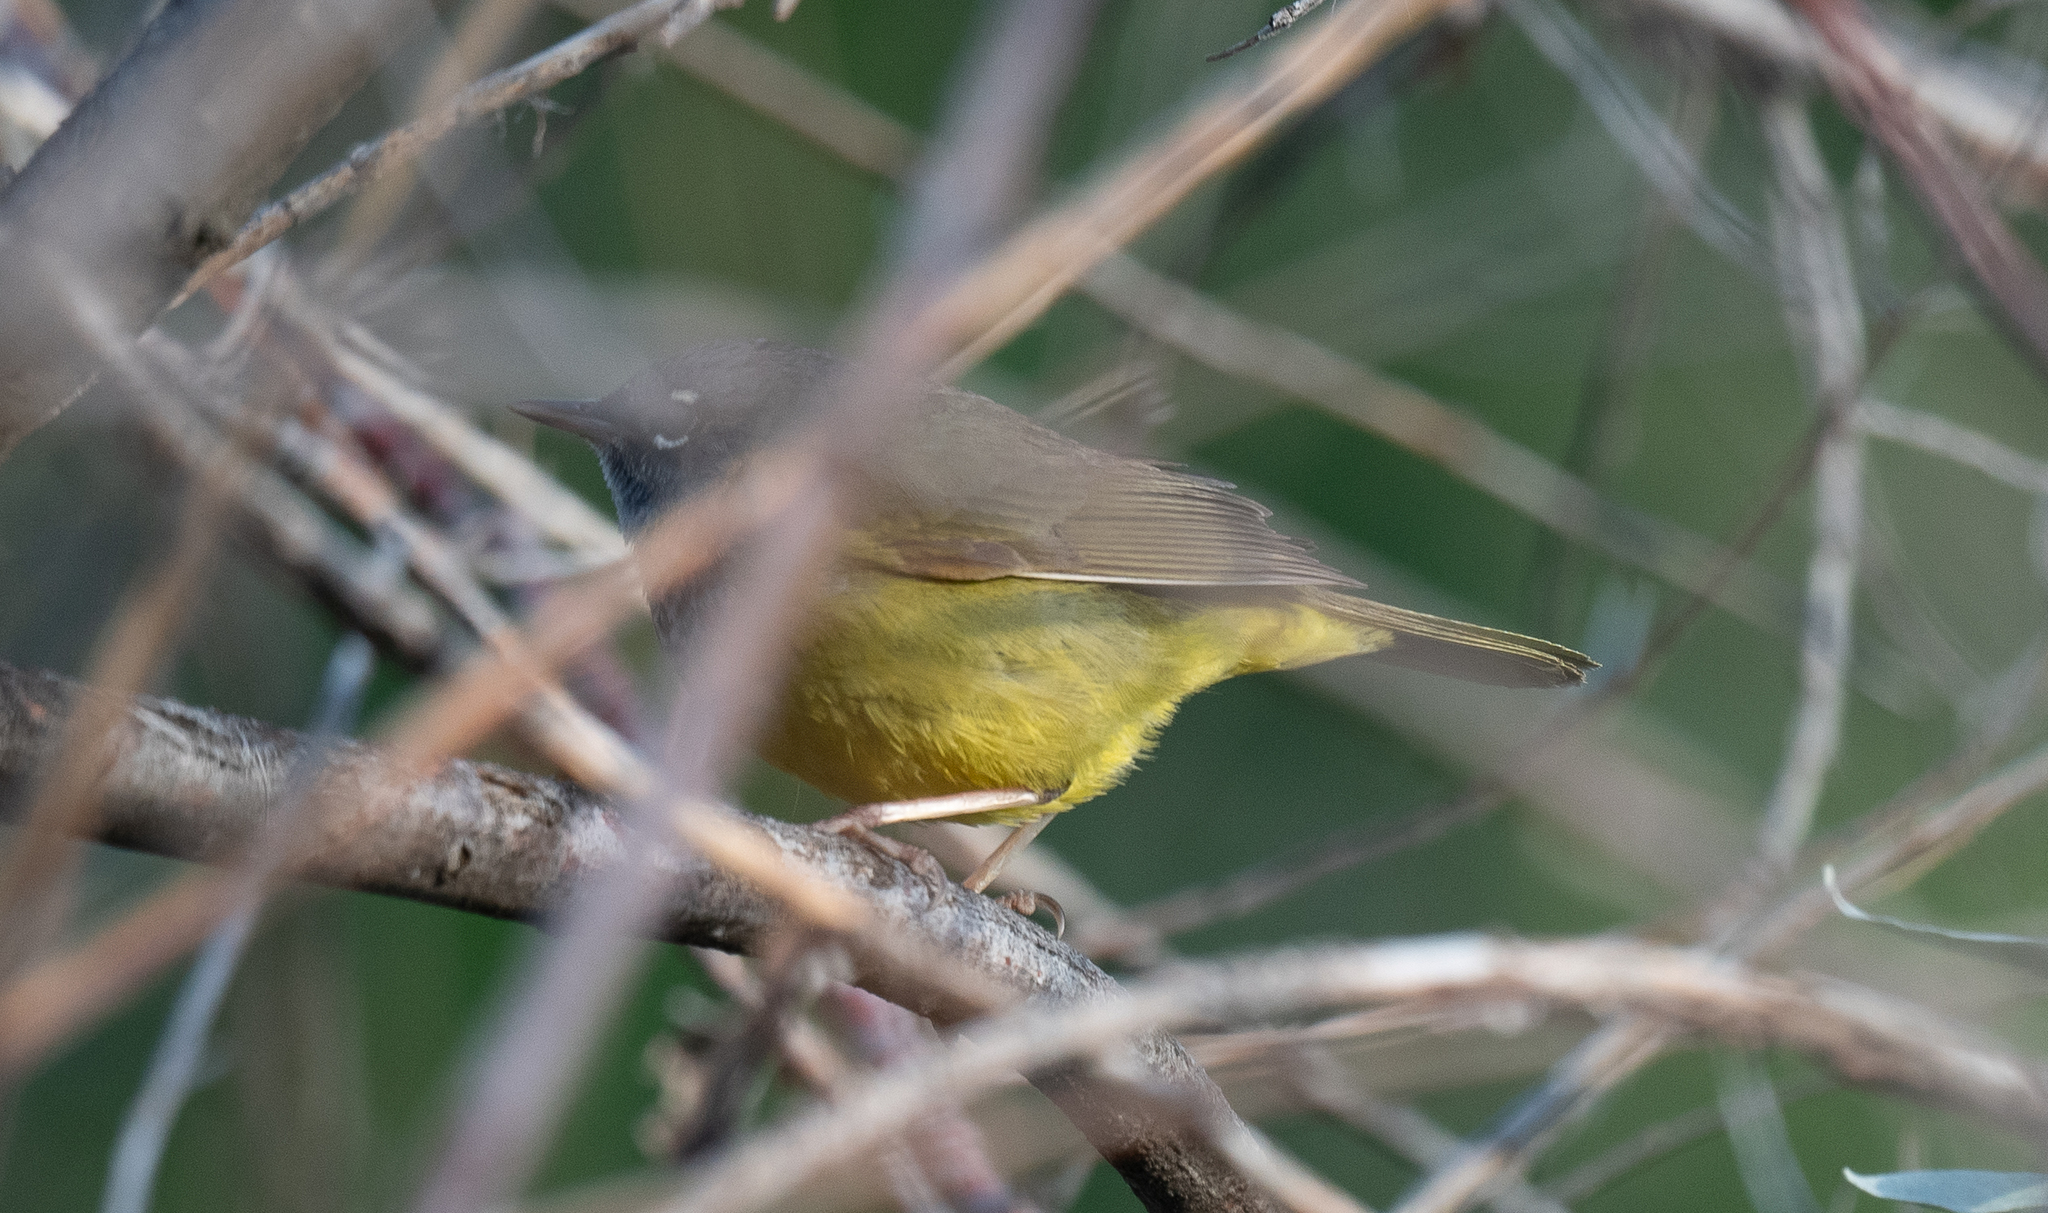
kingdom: Animalia
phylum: Chordata
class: Aves
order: Passeriformes
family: Parulidae
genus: Geothlypis
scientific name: Geothlypis tolmiei
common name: Macgillivray's warbler
